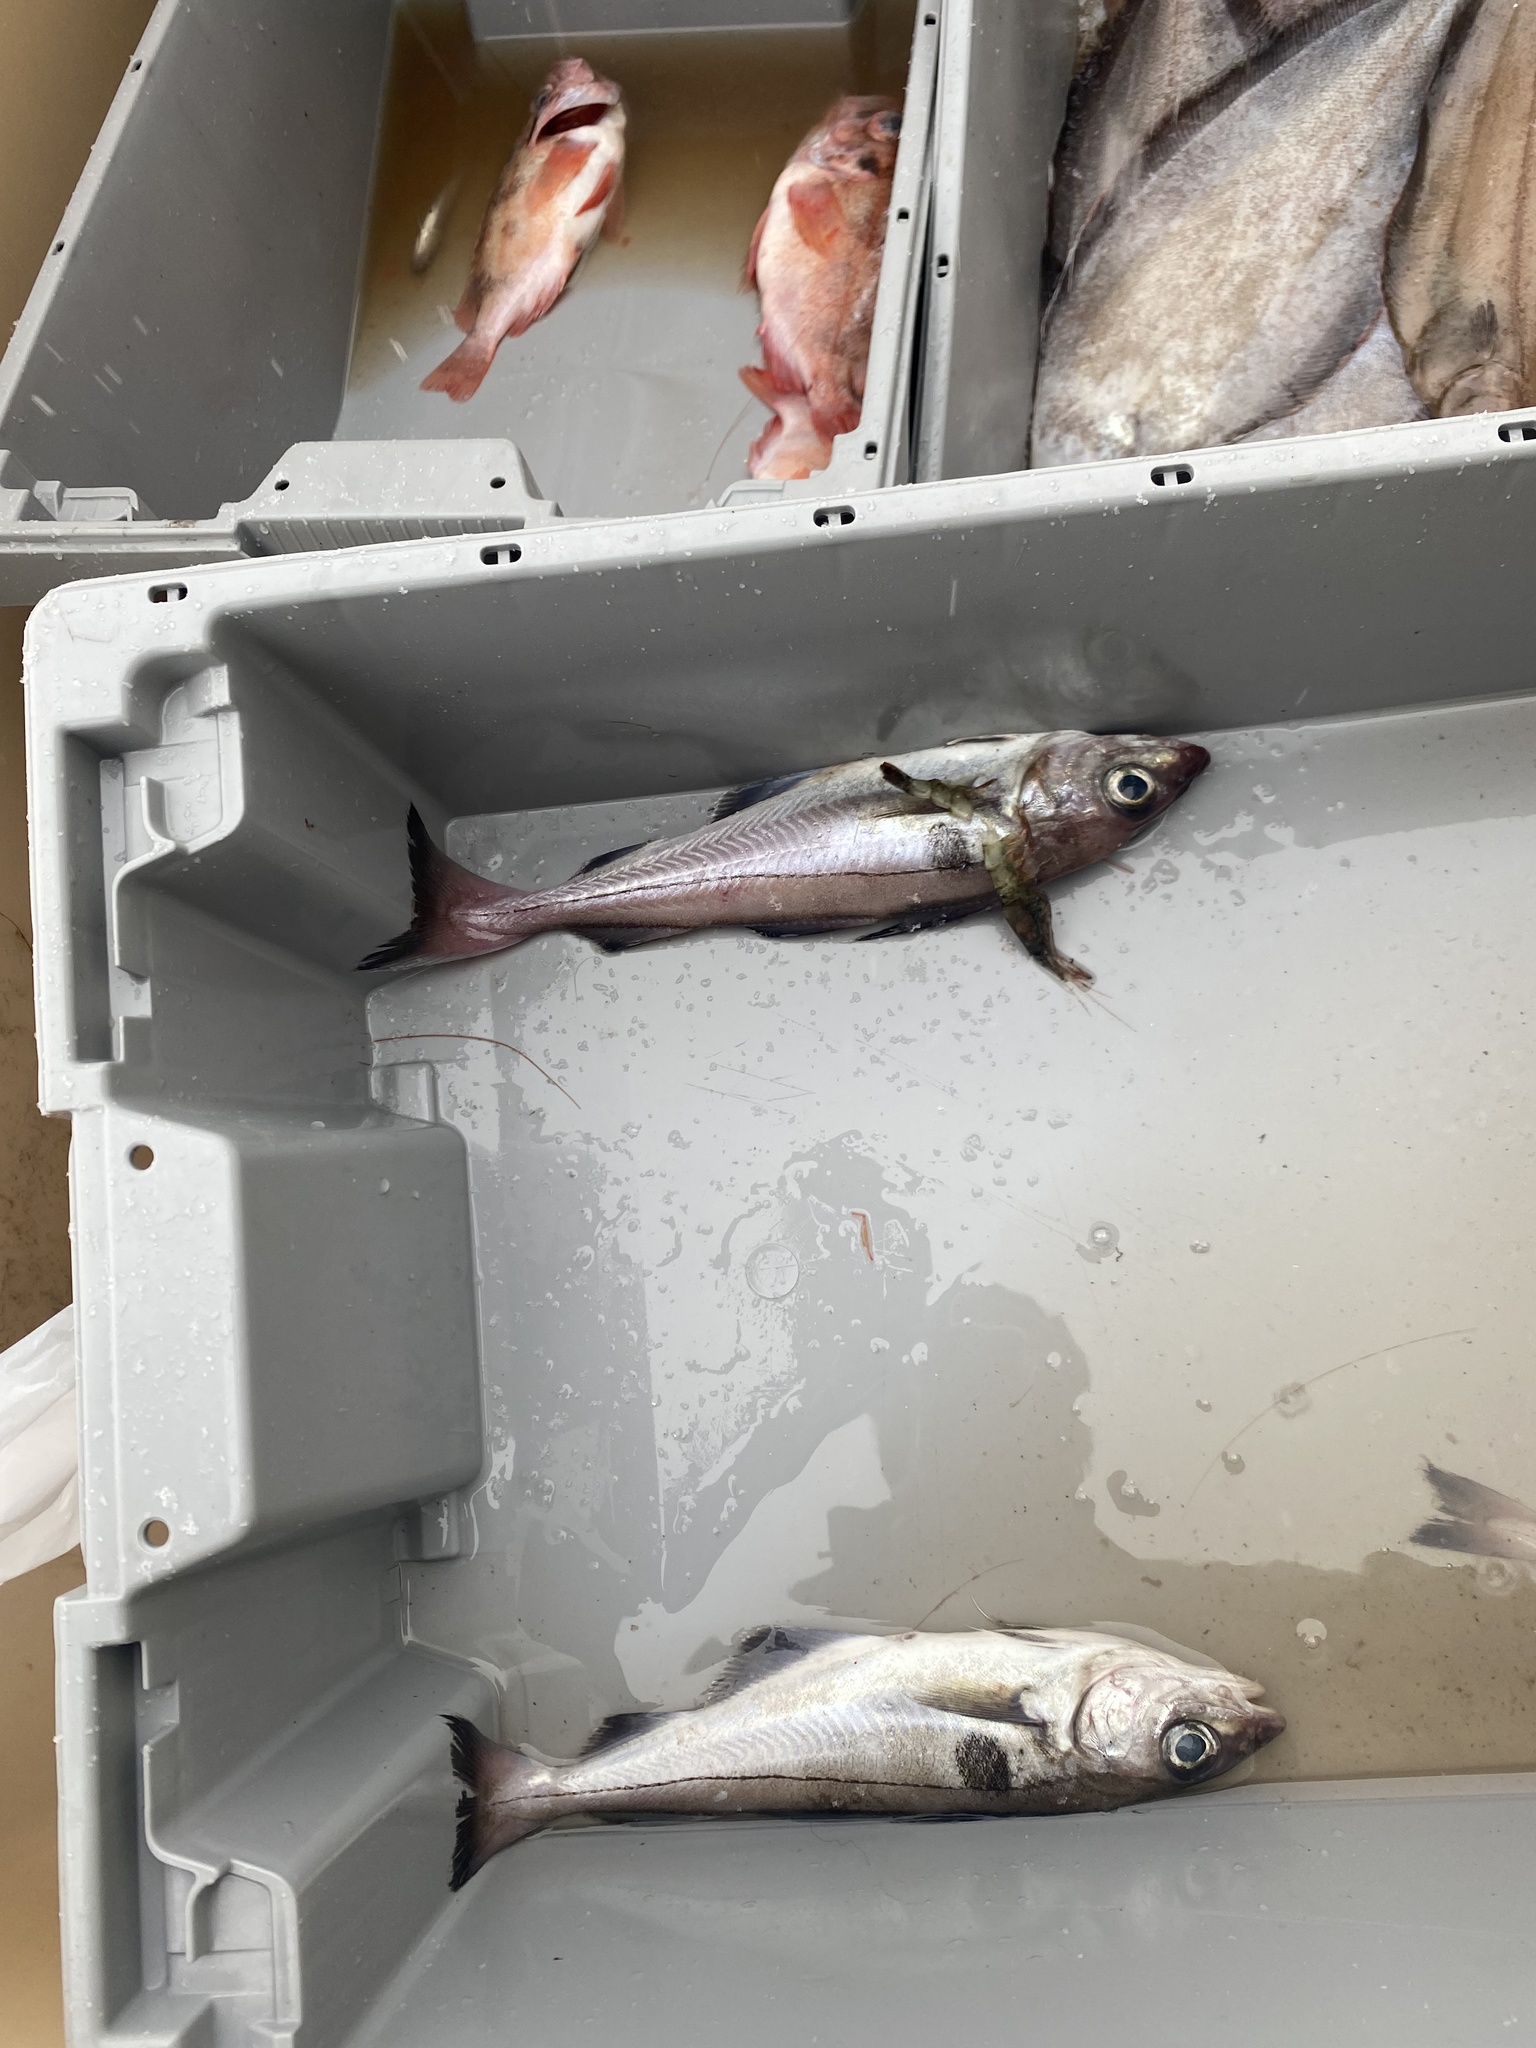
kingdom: Animalia
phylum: Chordata
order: Gadiformes
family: Gadidae
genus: Melanogrammus
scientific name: Melanogrammus aeglefinus
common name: Haddock
